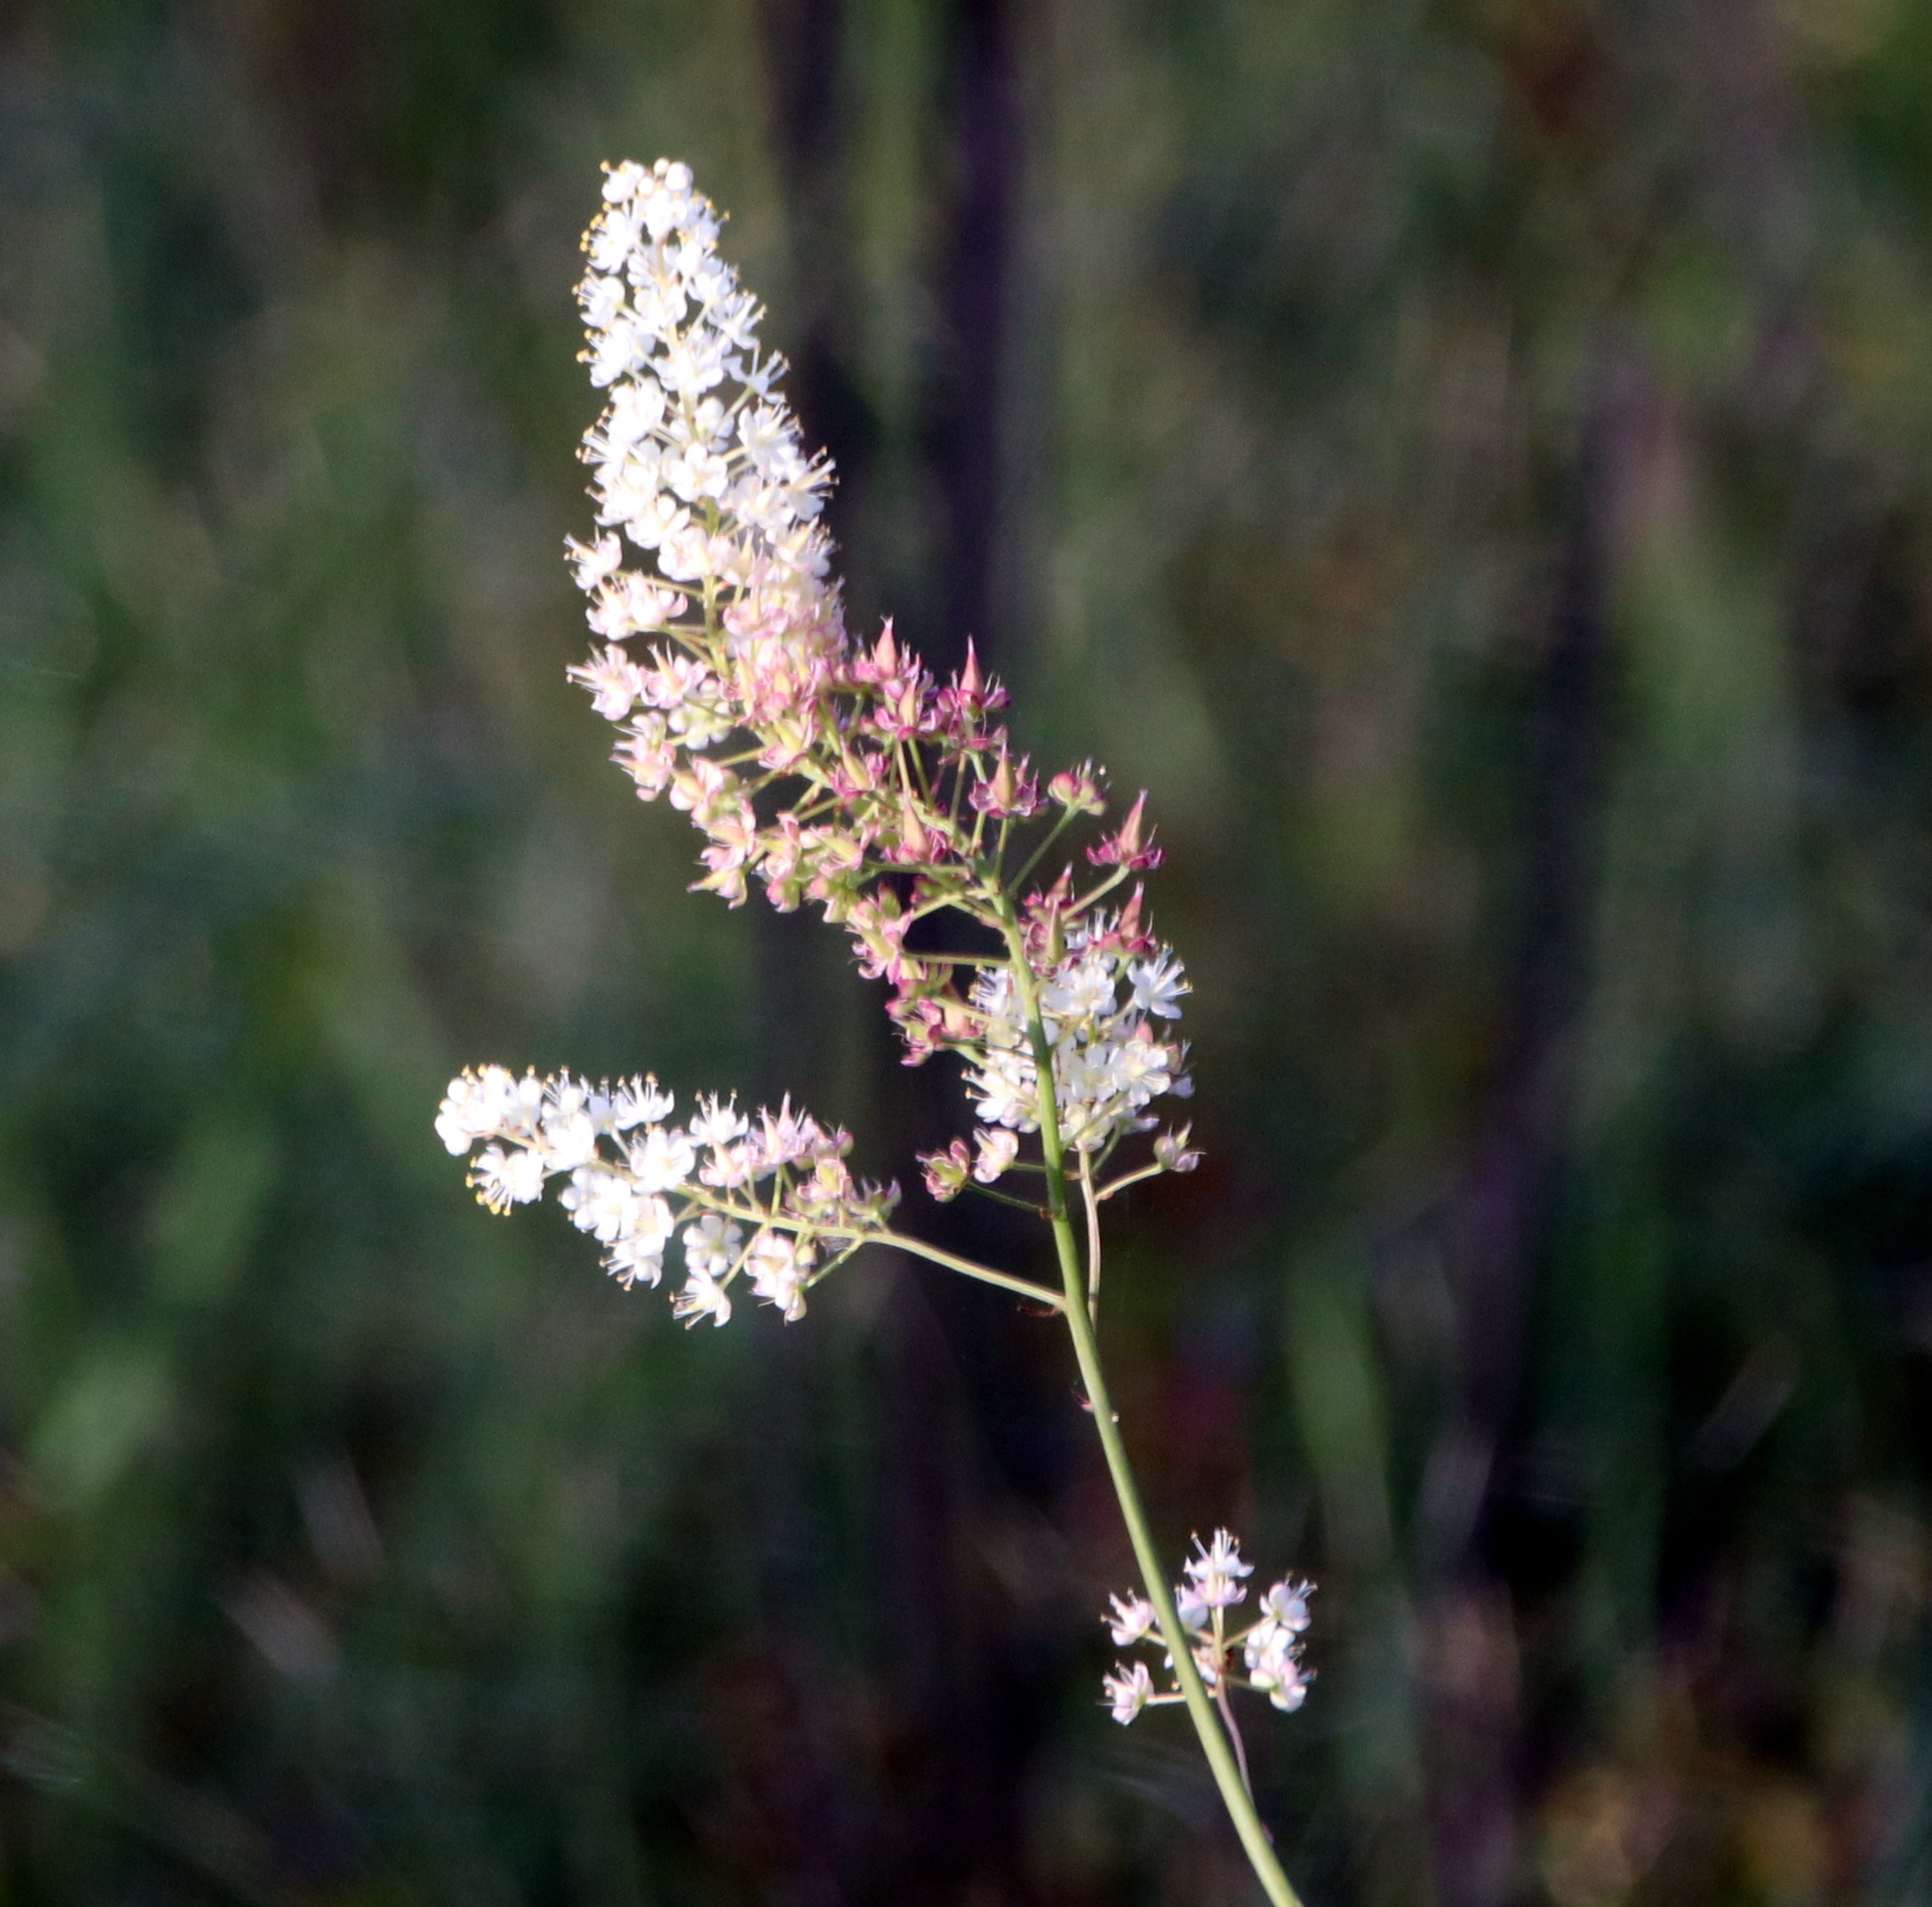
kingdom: Plantae
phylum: Tracheophyta
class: Liliopsida
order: Liliales
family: Melanthiaceae
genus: Stenanthium
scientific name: Stenanthium texanum
